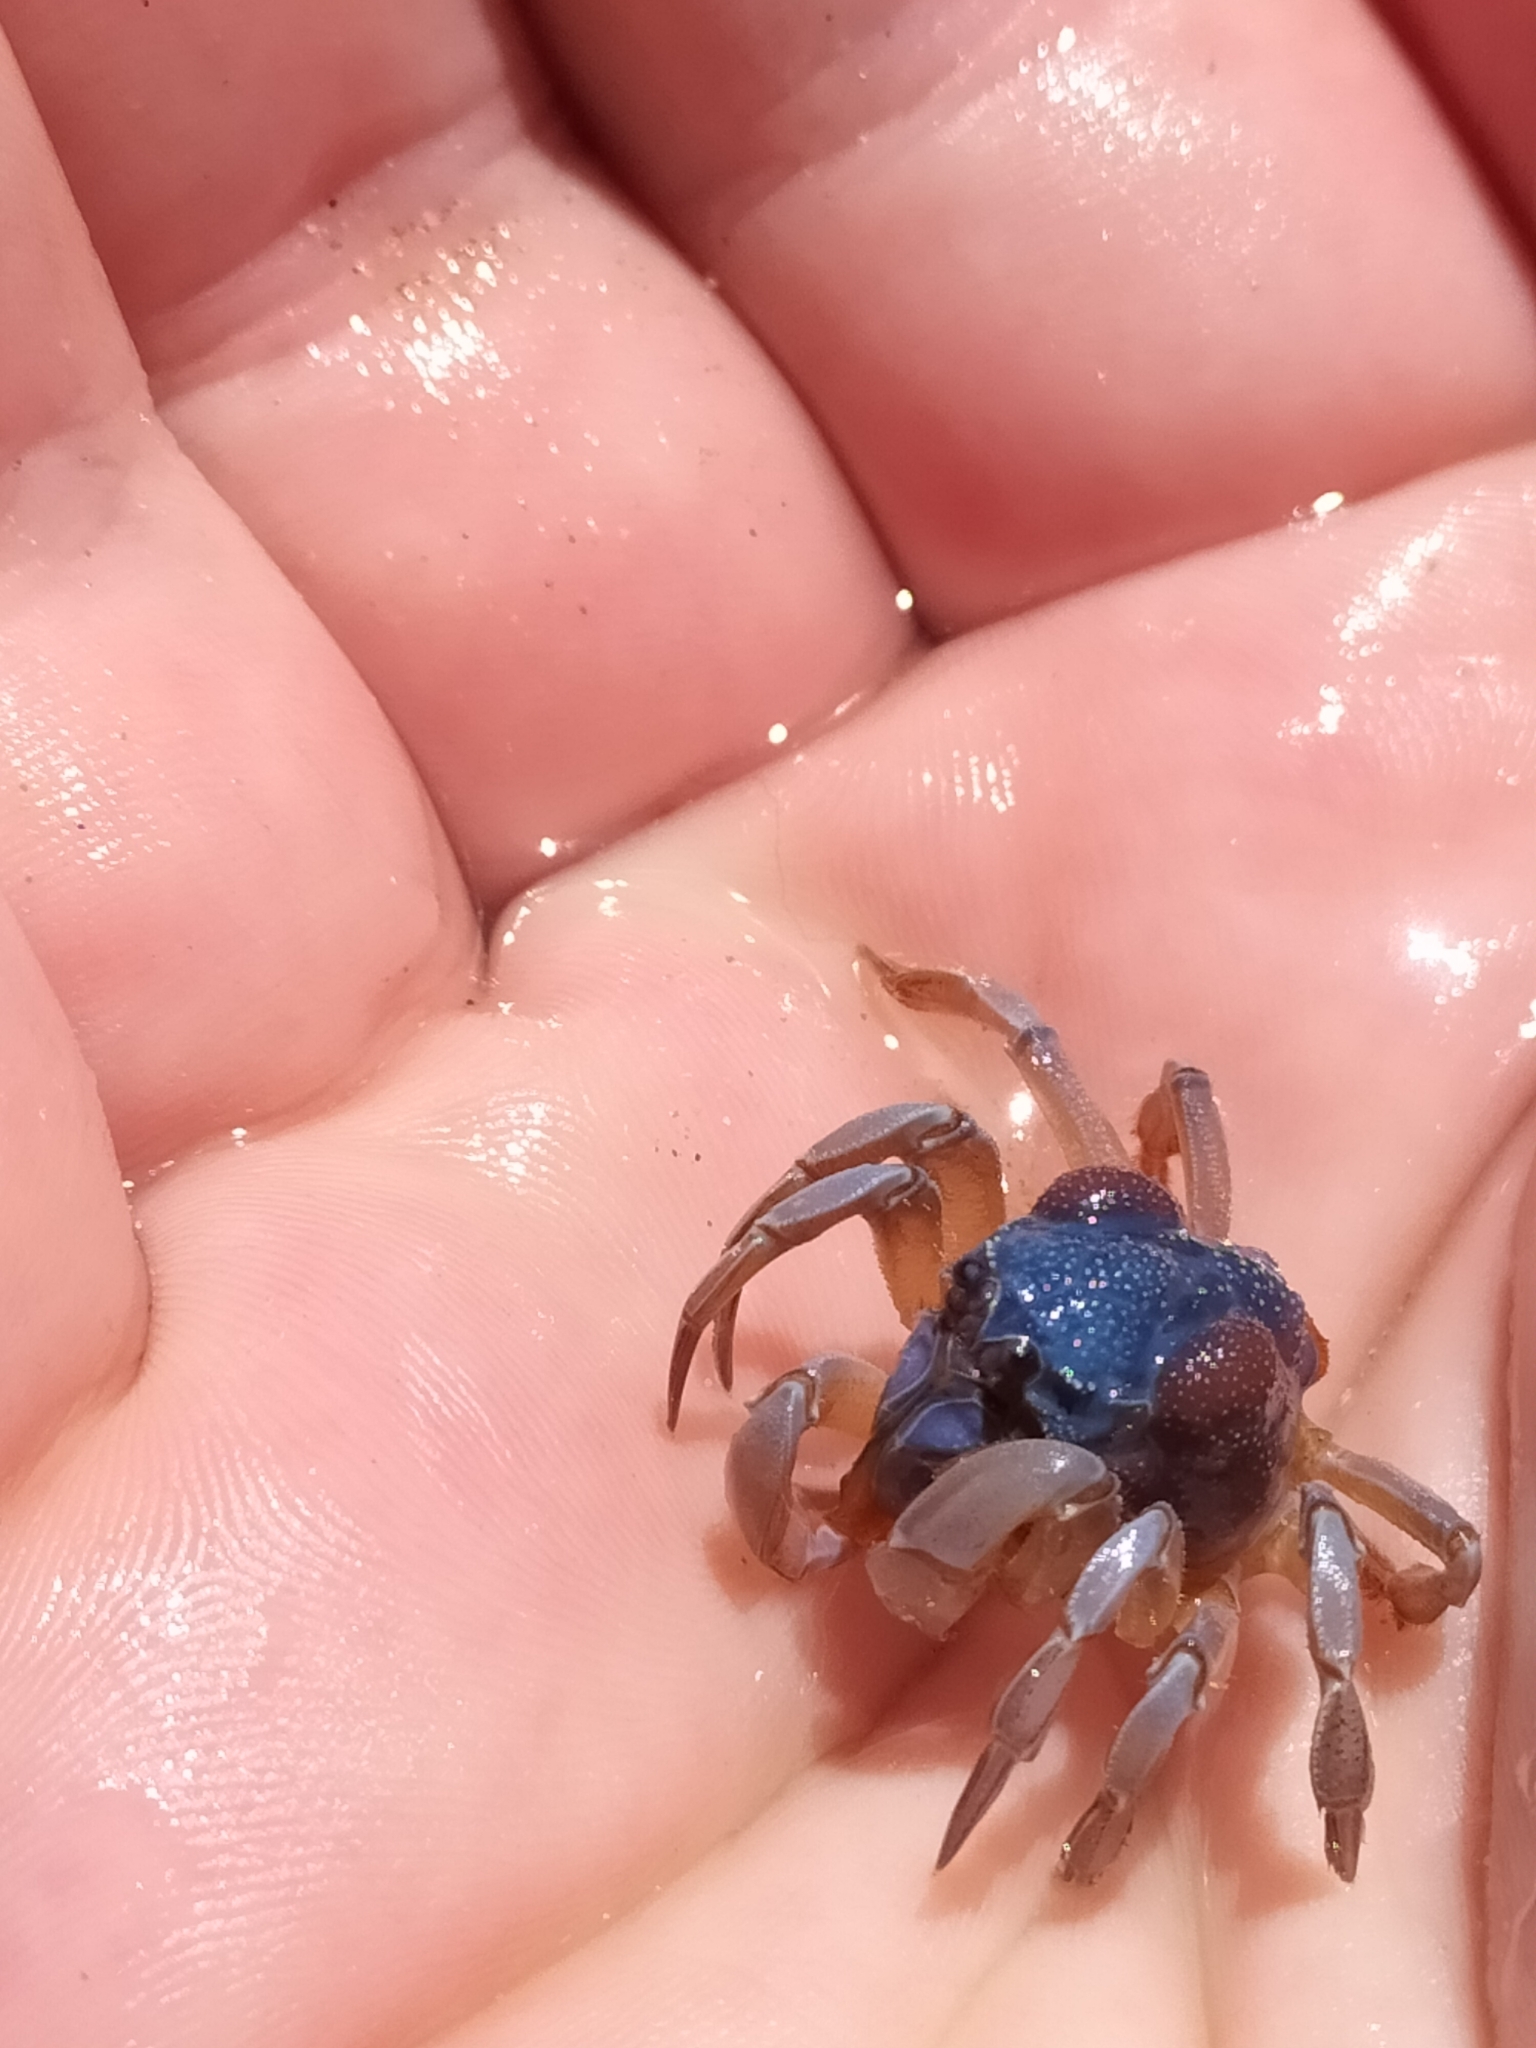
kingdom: Animalia
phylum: Arthropoda
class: Malacostraca
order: Decapoda
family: Mictyridae
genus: Mictyris
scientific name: Mictyris platycheles
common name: Dark blue soldier crab
